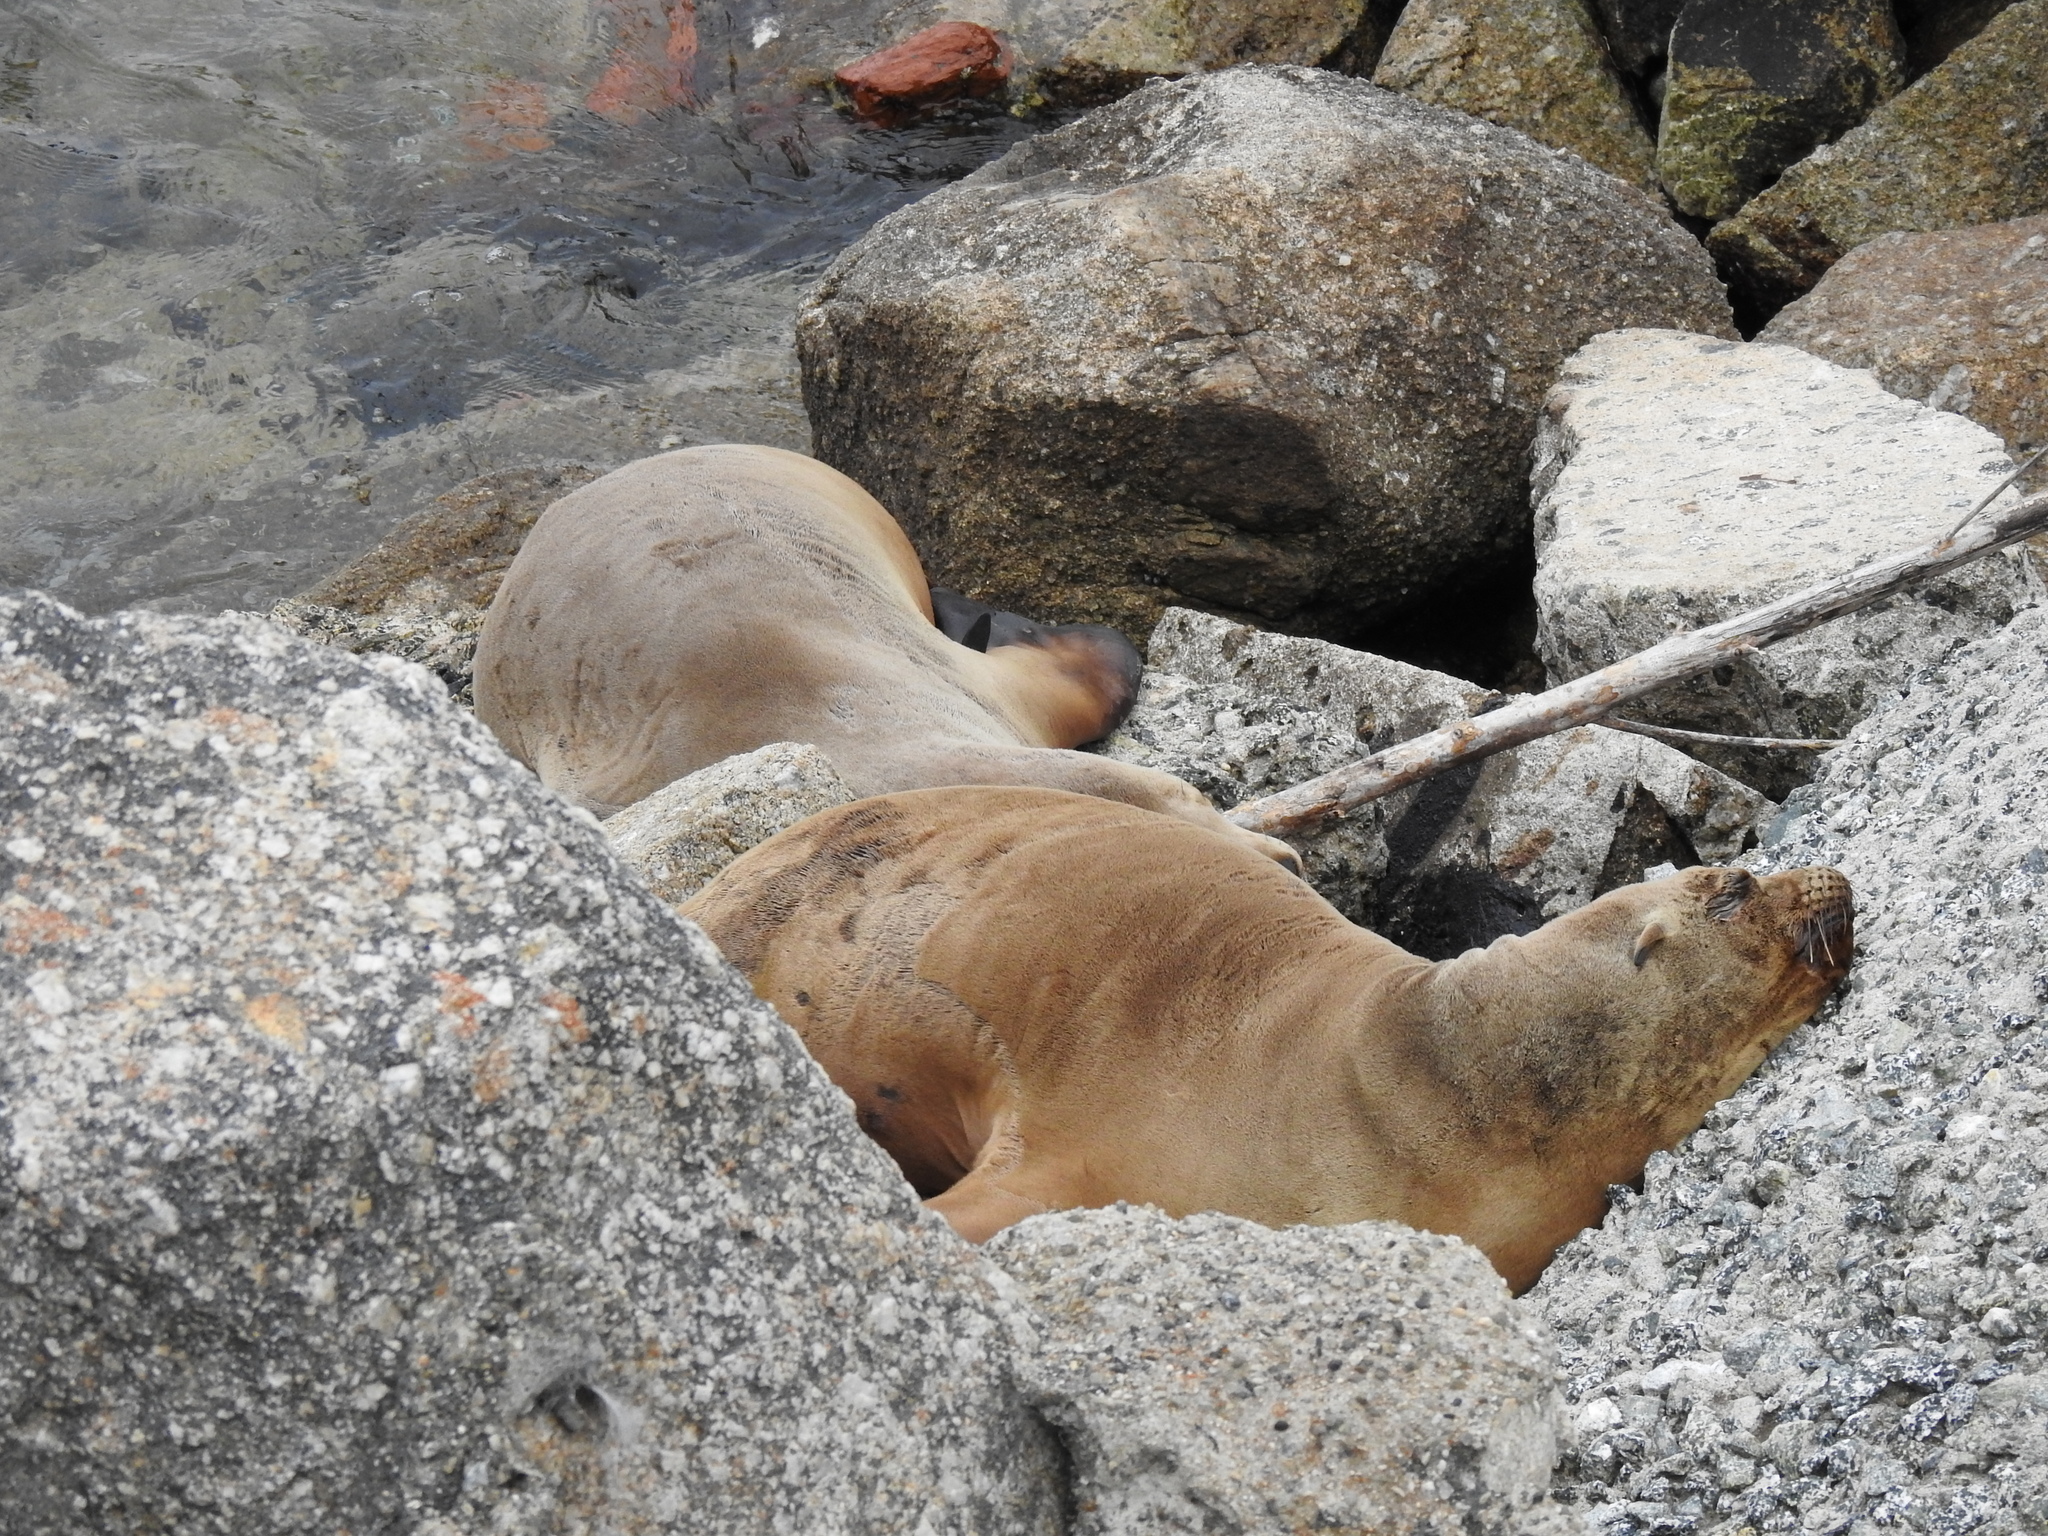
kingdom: Animalia
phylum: Chordata
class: Mammalia
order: Carnivora
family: Otariidae
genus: Zalophus
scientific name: Zalophus californianus
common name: California sea lion
